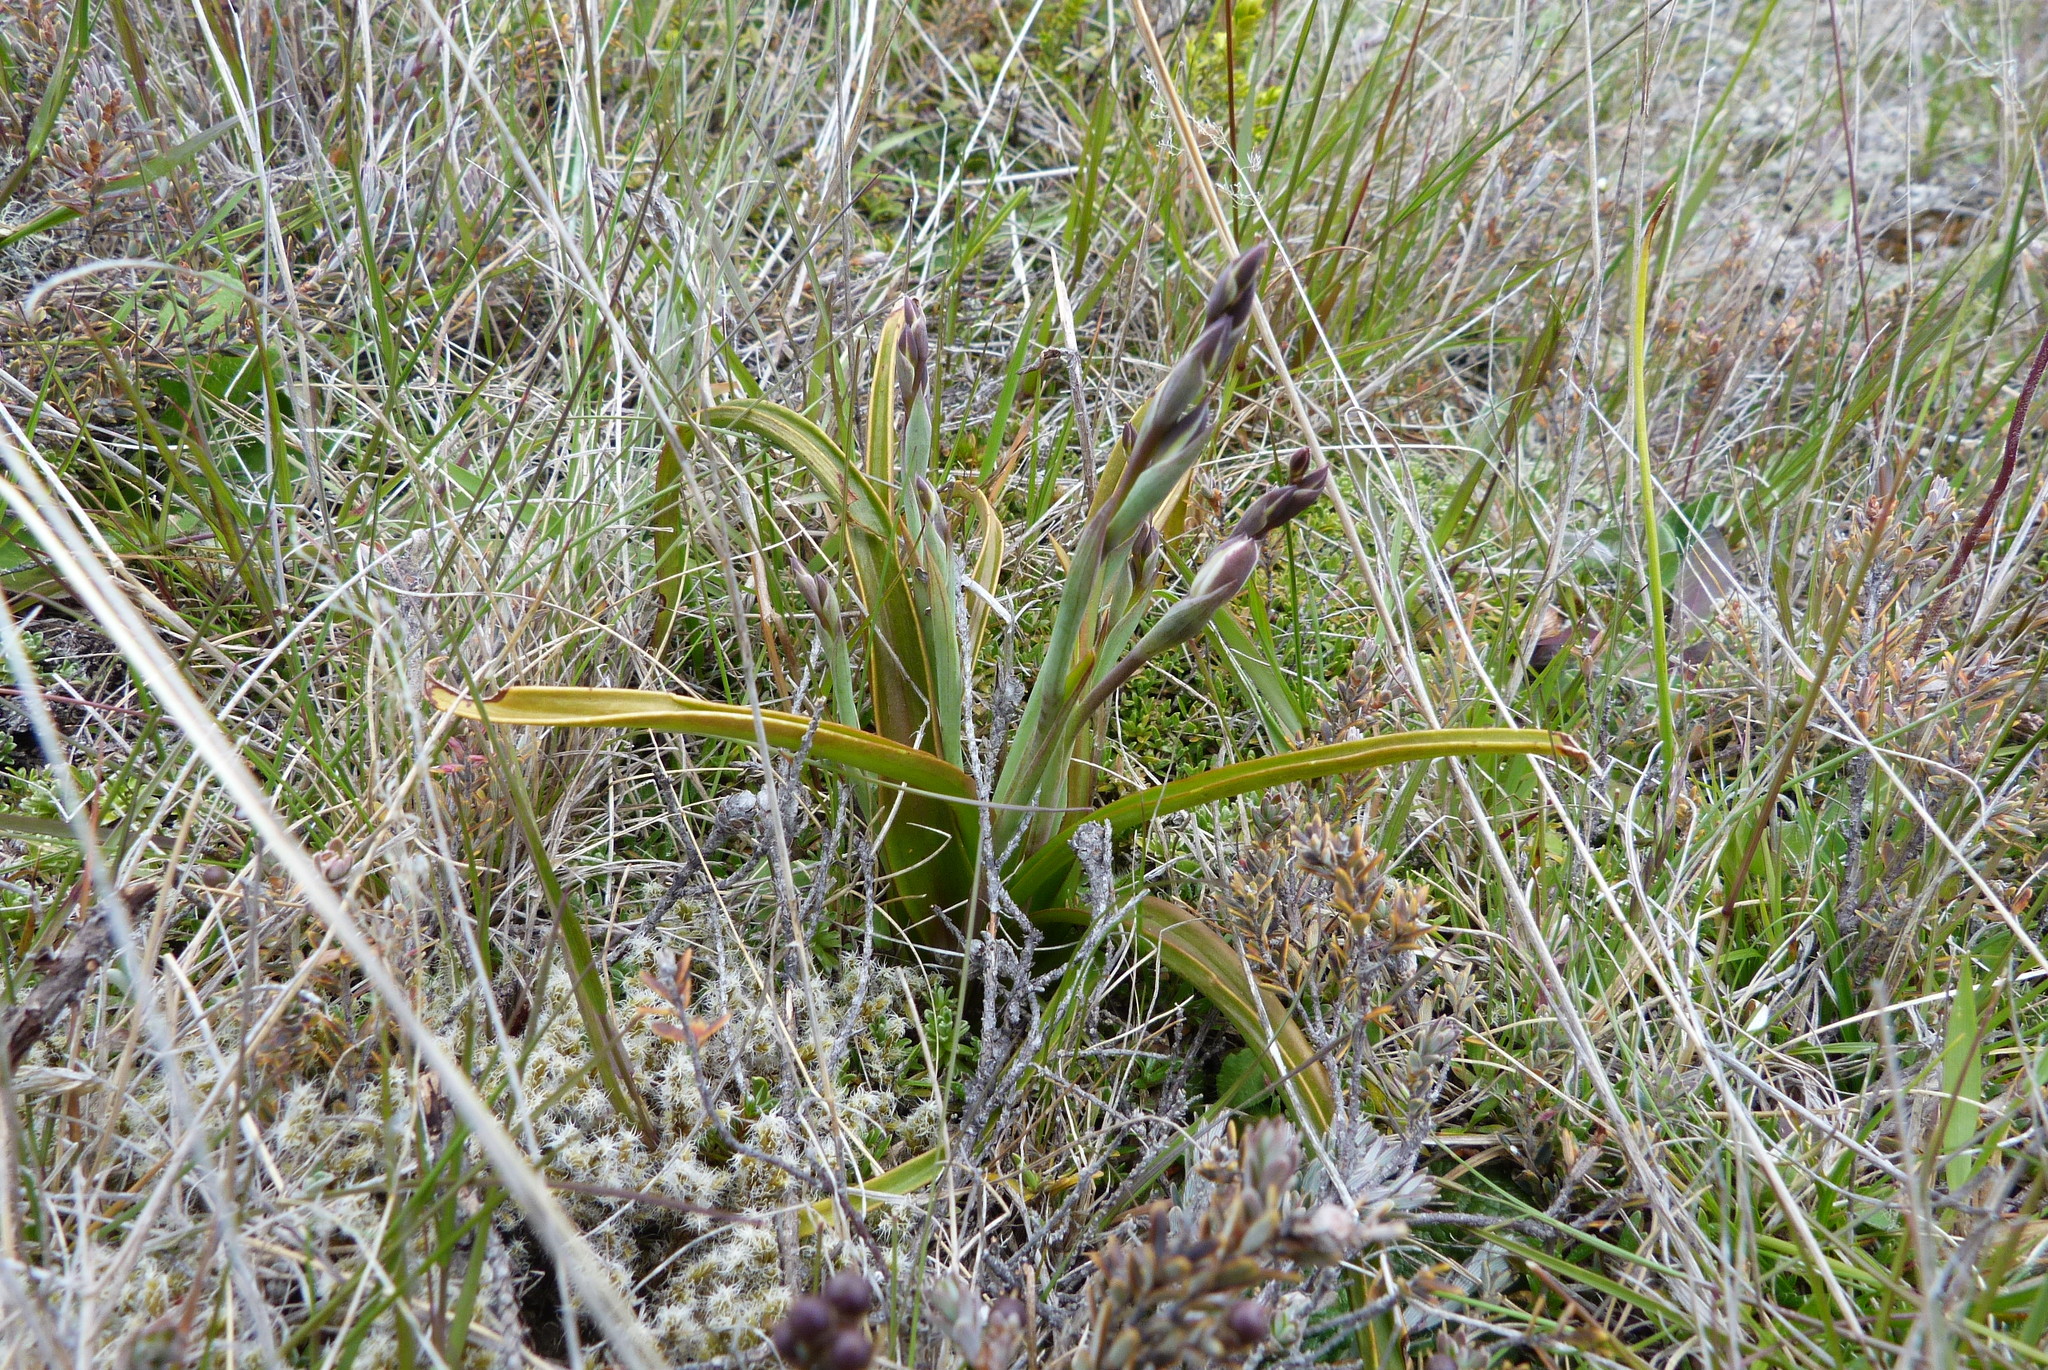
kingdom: Plantae
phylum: Tracheophyta
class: Liliopsida
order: Asparagales
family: Orchidaceae
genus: Thelymitra
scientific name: Thelymitra longifolia
